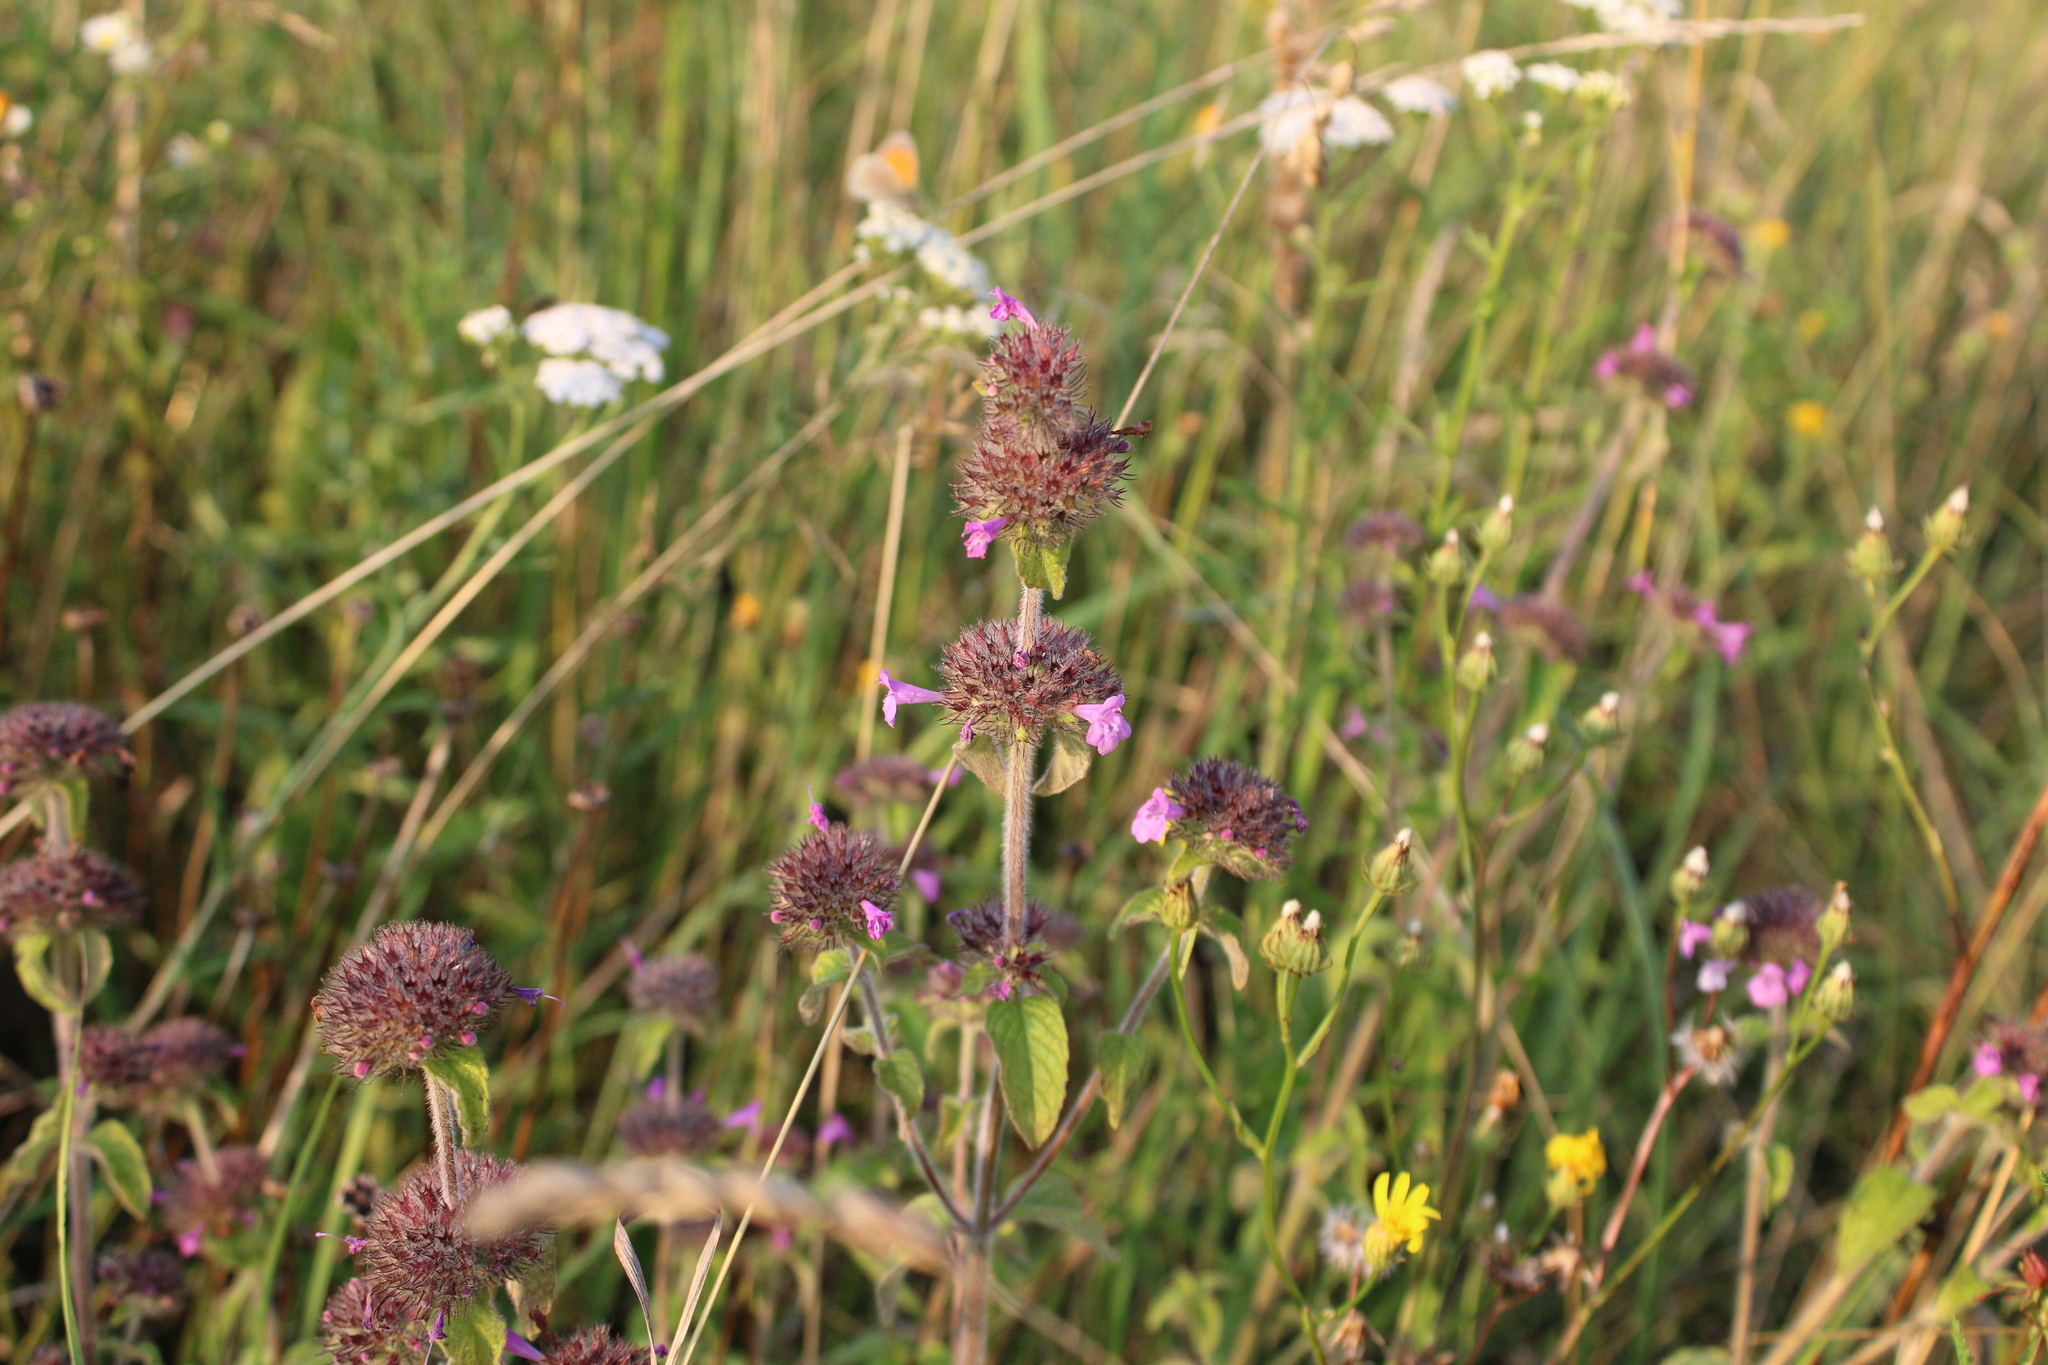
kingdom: Plantae
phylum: Tracheophyta
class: Magnoliopsida
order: Lamiales
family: Lamiaceae
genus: Clinopodium
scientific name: Clinopodium vulgare
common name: Wild basil
